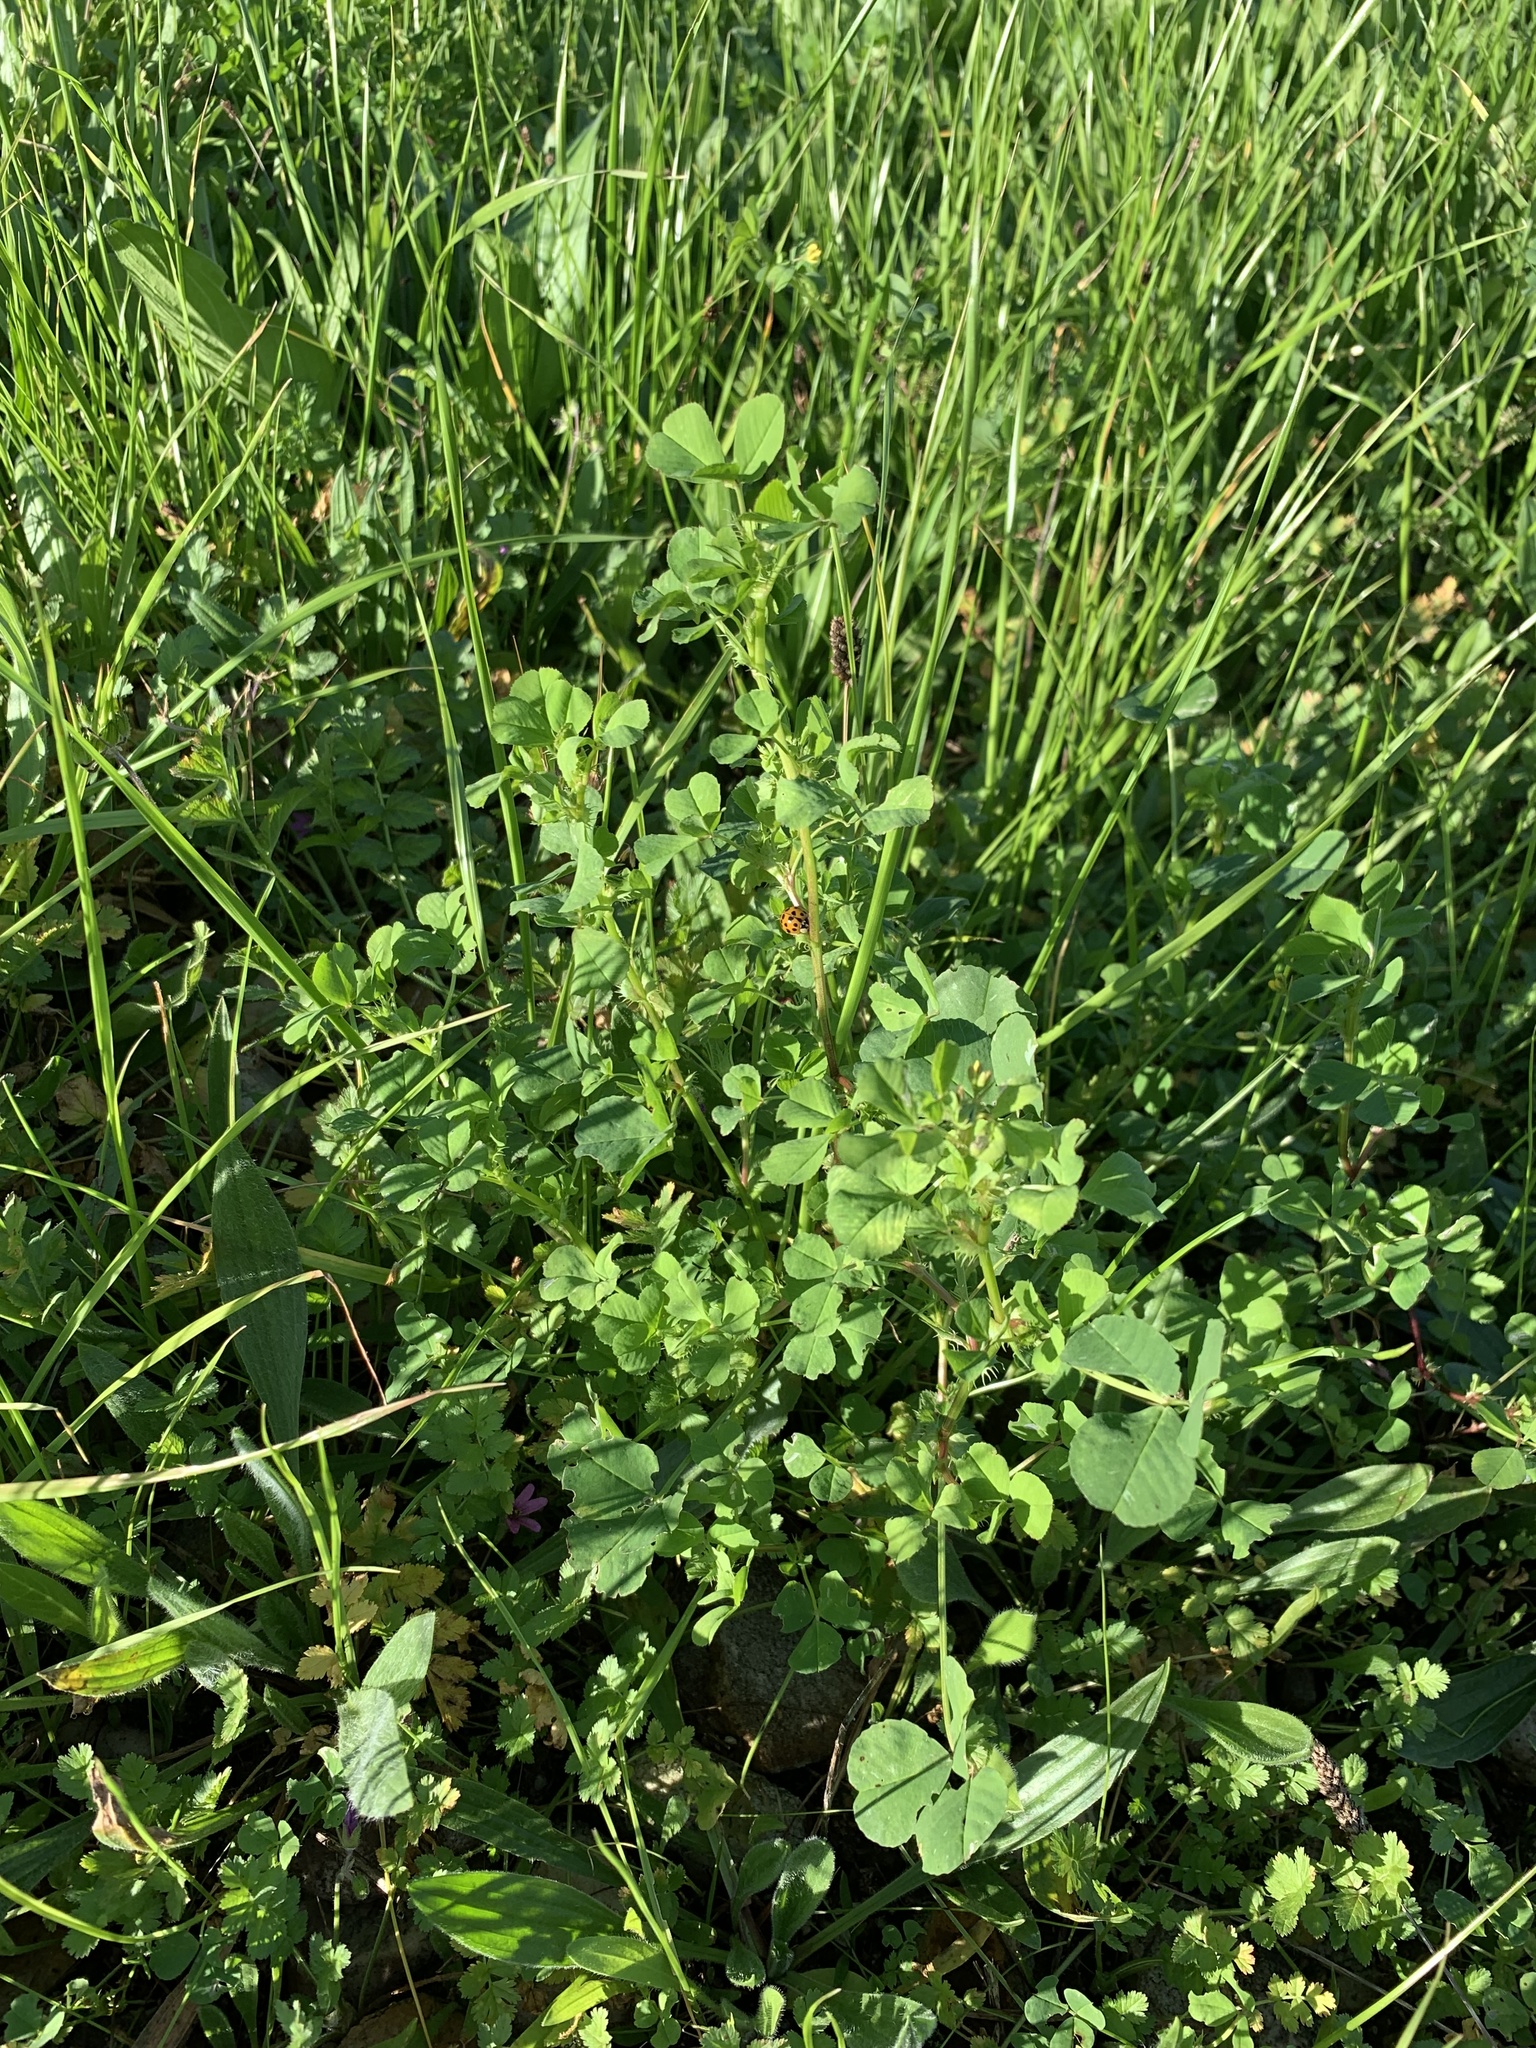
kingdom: Plantae
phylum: Tracheophyta
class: Magnoliopsida
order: Fabales
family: Fabaceae
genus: Medicago
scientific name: Medicago polymorpha
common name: Burclover
